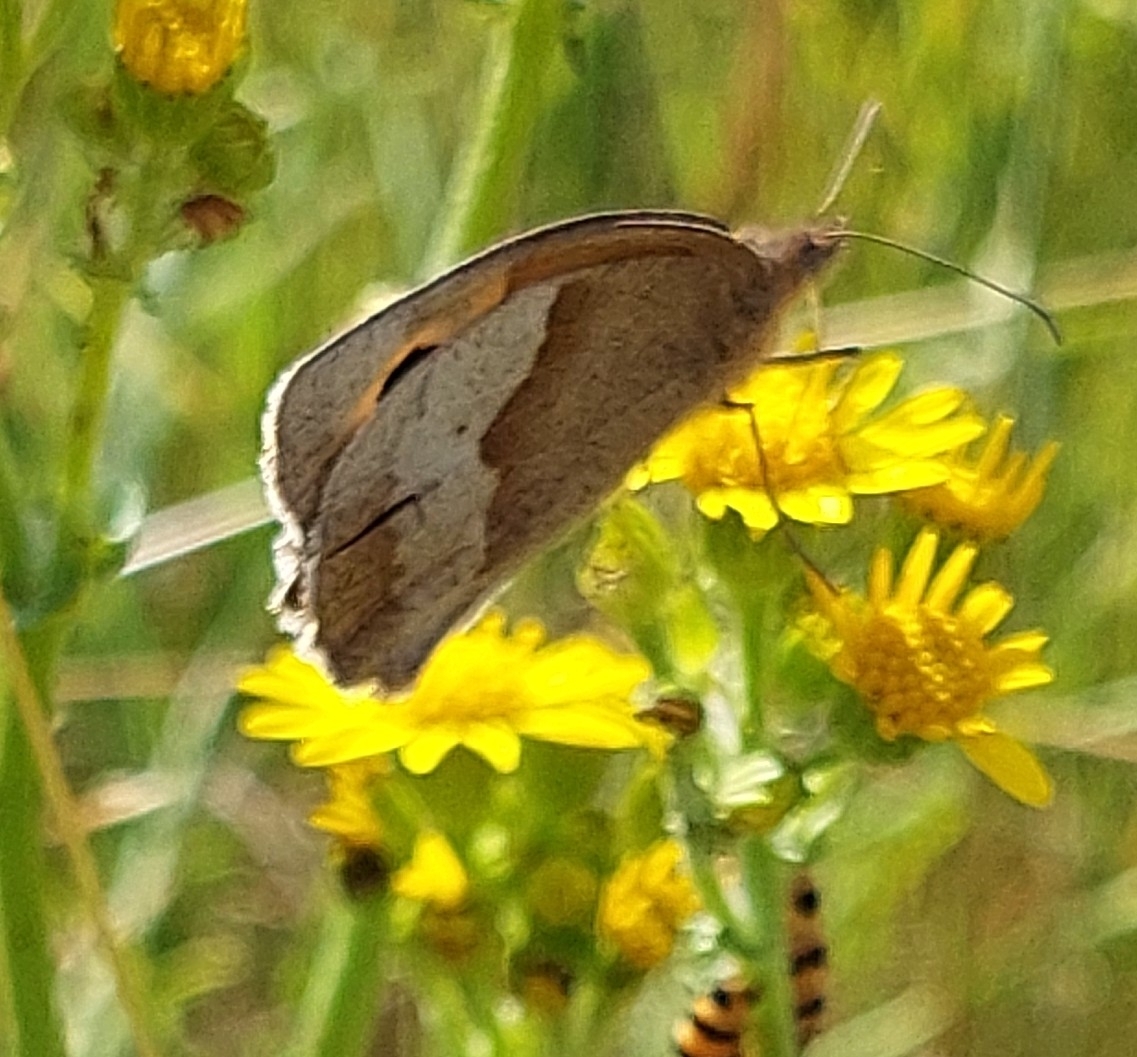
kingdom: Animalia
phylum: Arthropoda
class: Insecta
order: Lepidoptera
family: Nymphalidae
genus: Maniola
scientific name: Maniola jurtina
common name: Meadow brown
